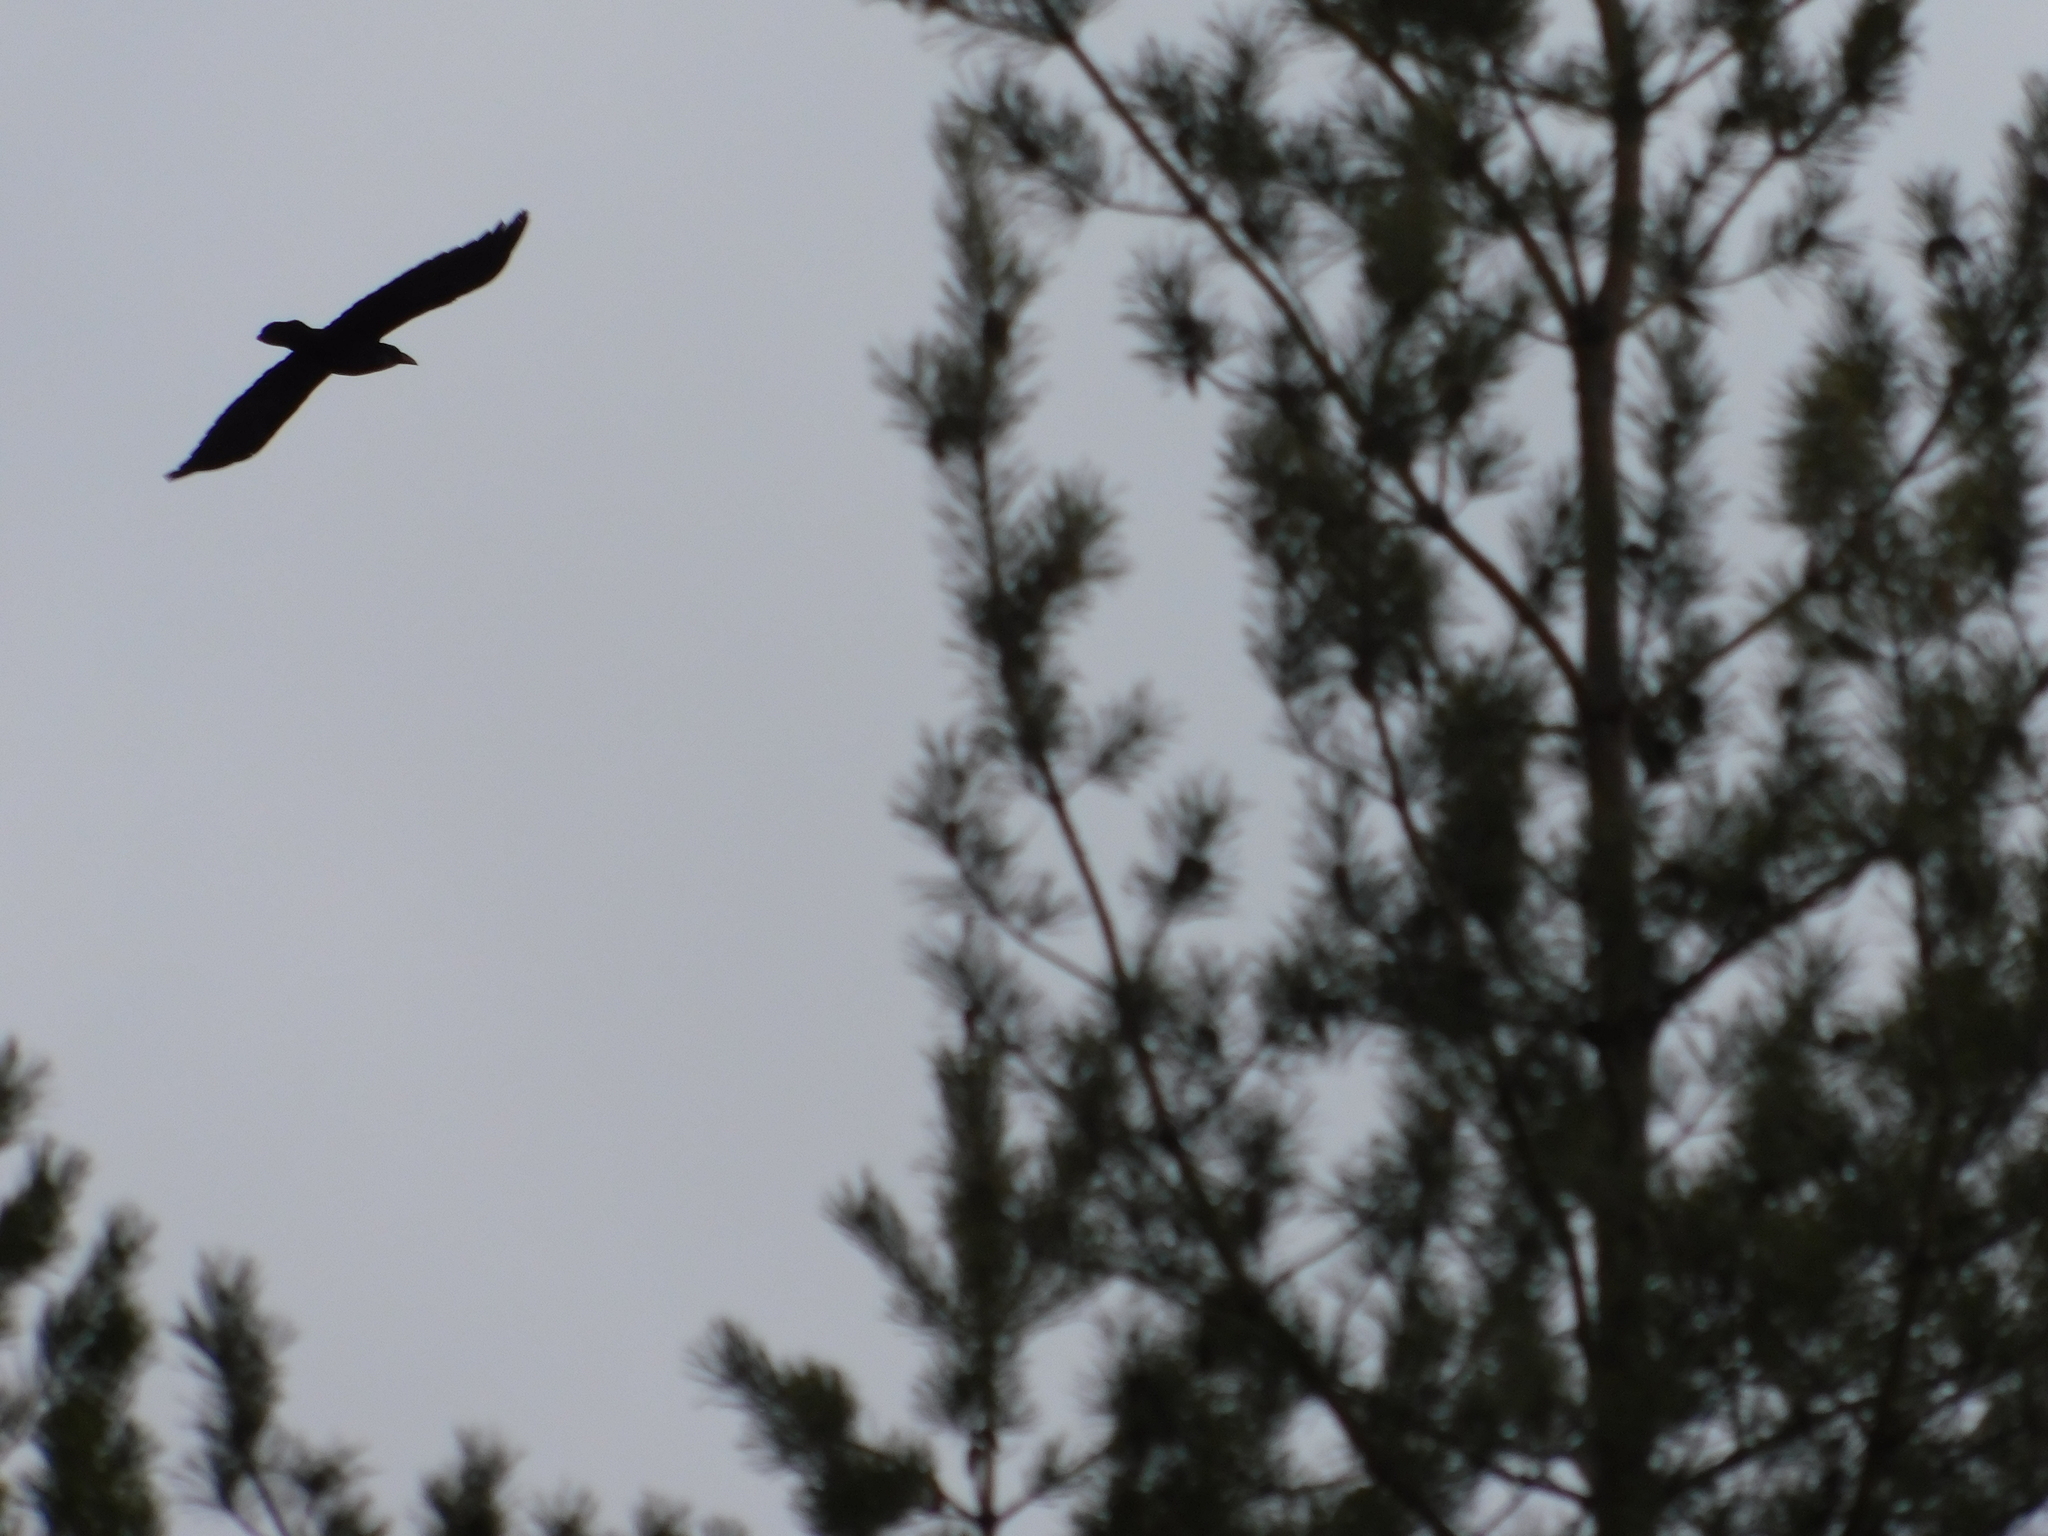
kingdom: Animalia
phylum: Chordata
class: Aves
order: Passeriformes
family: Corvidae
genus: Corvus
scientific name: Corvus corax
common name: Common raven
